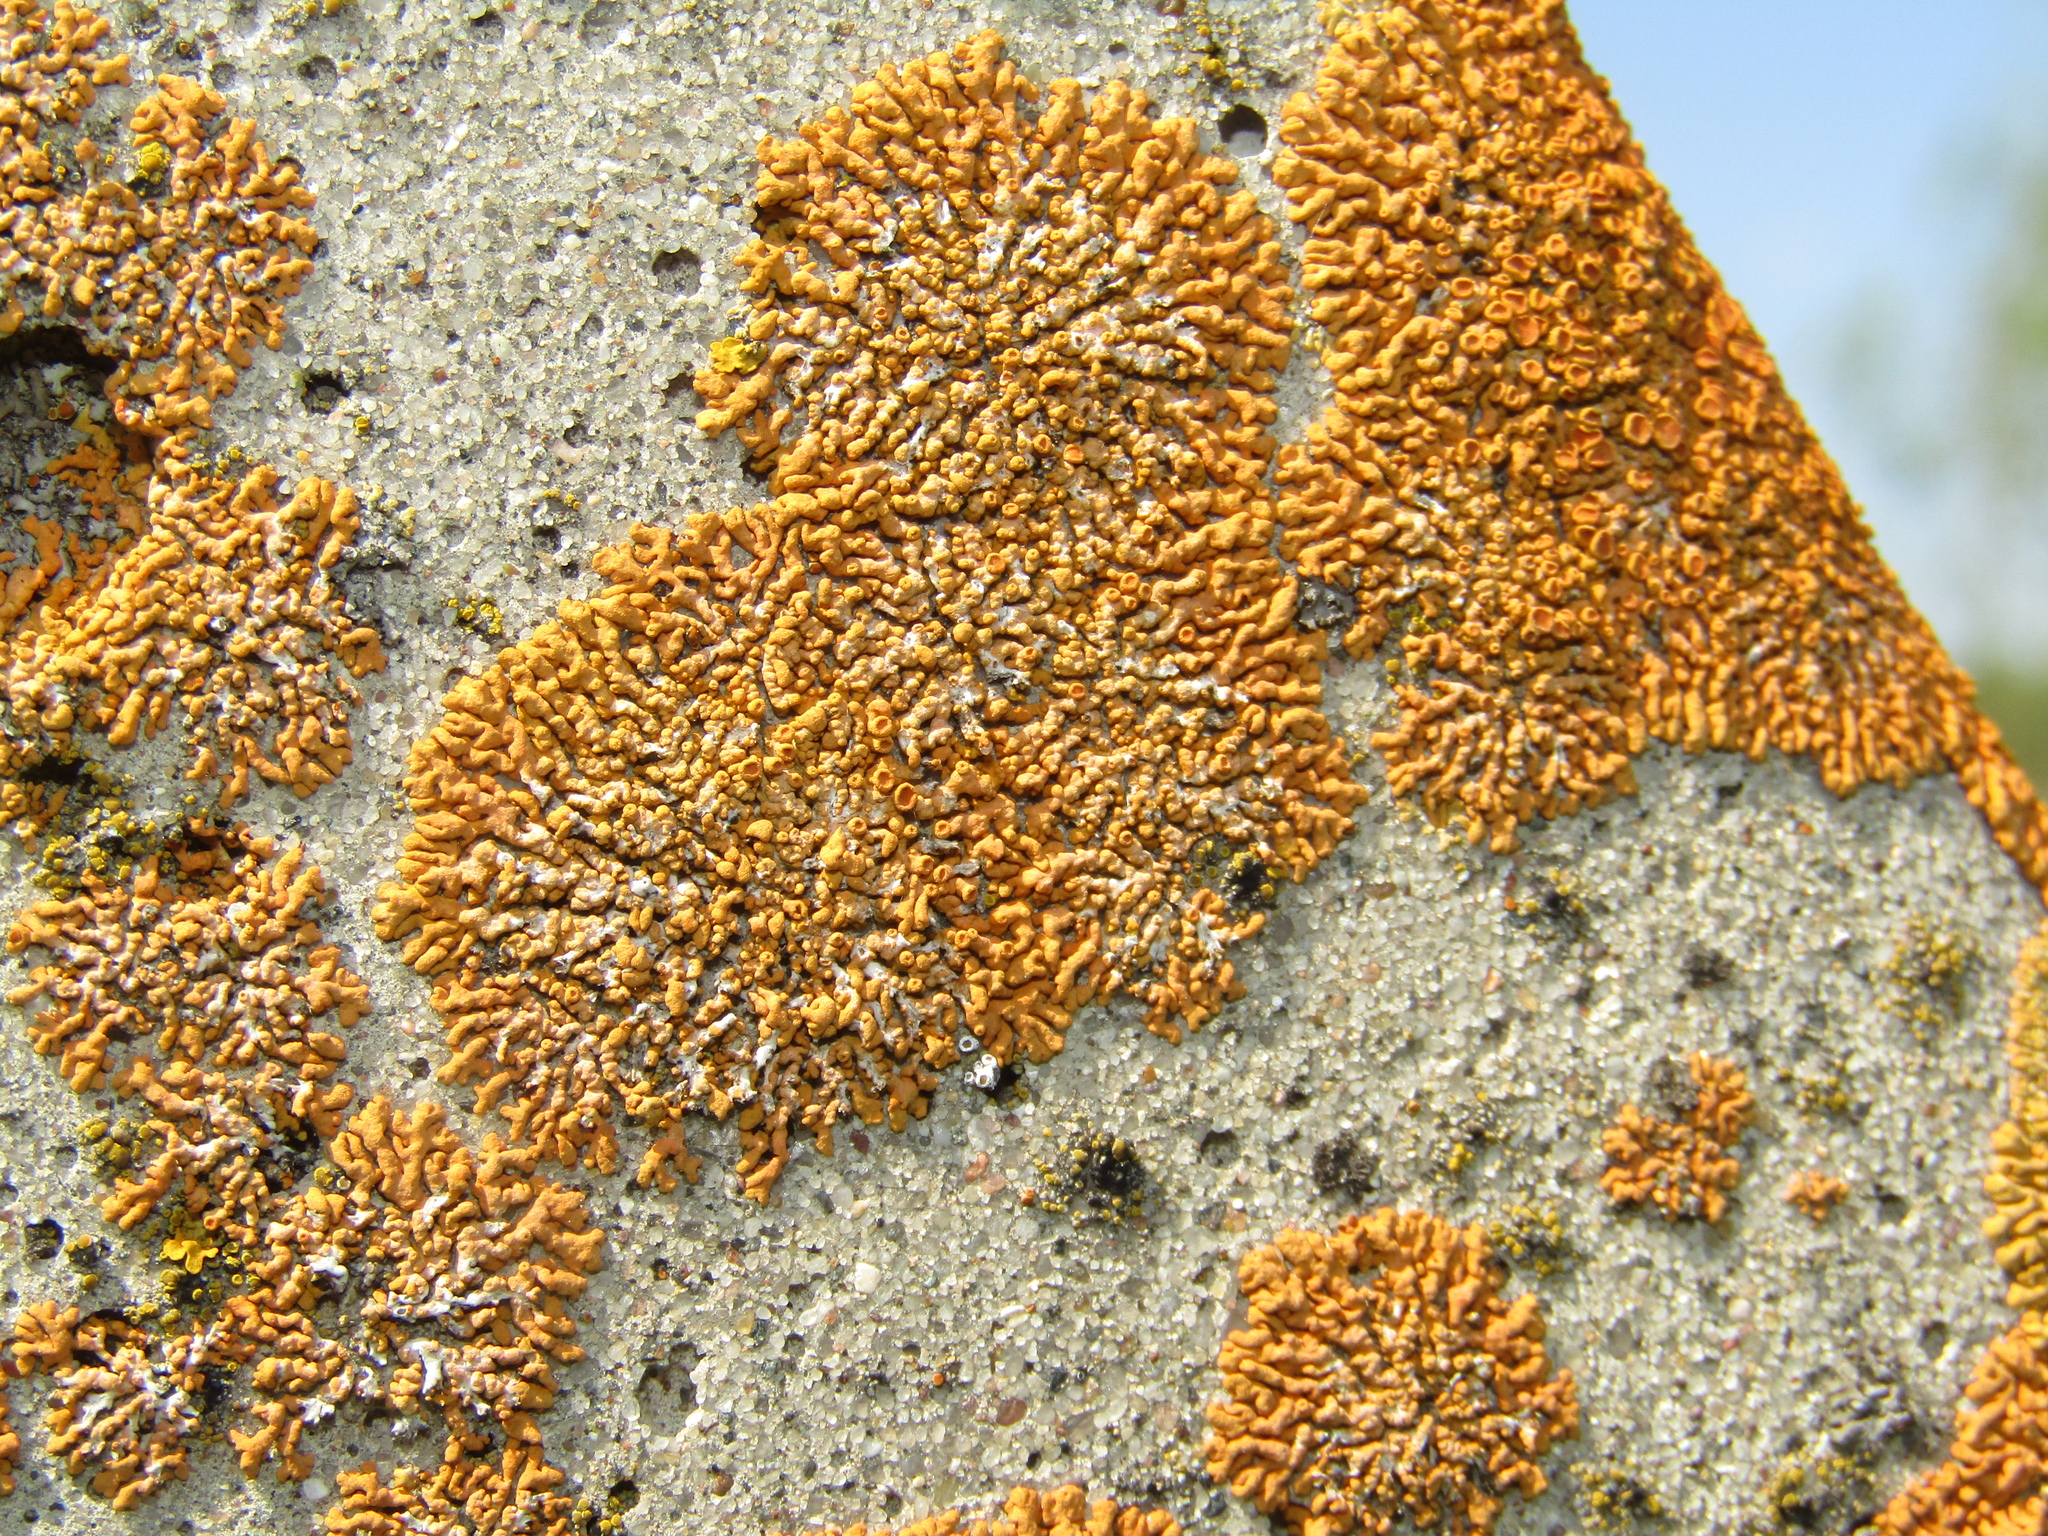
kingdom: Fungi
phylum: Ascomycota
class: Lecanoromycetes
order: Teloschistales
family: Teloschistaceae
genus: Xanthoria
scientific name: Xanthoria elegans
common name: Elegant sunburst lichen
